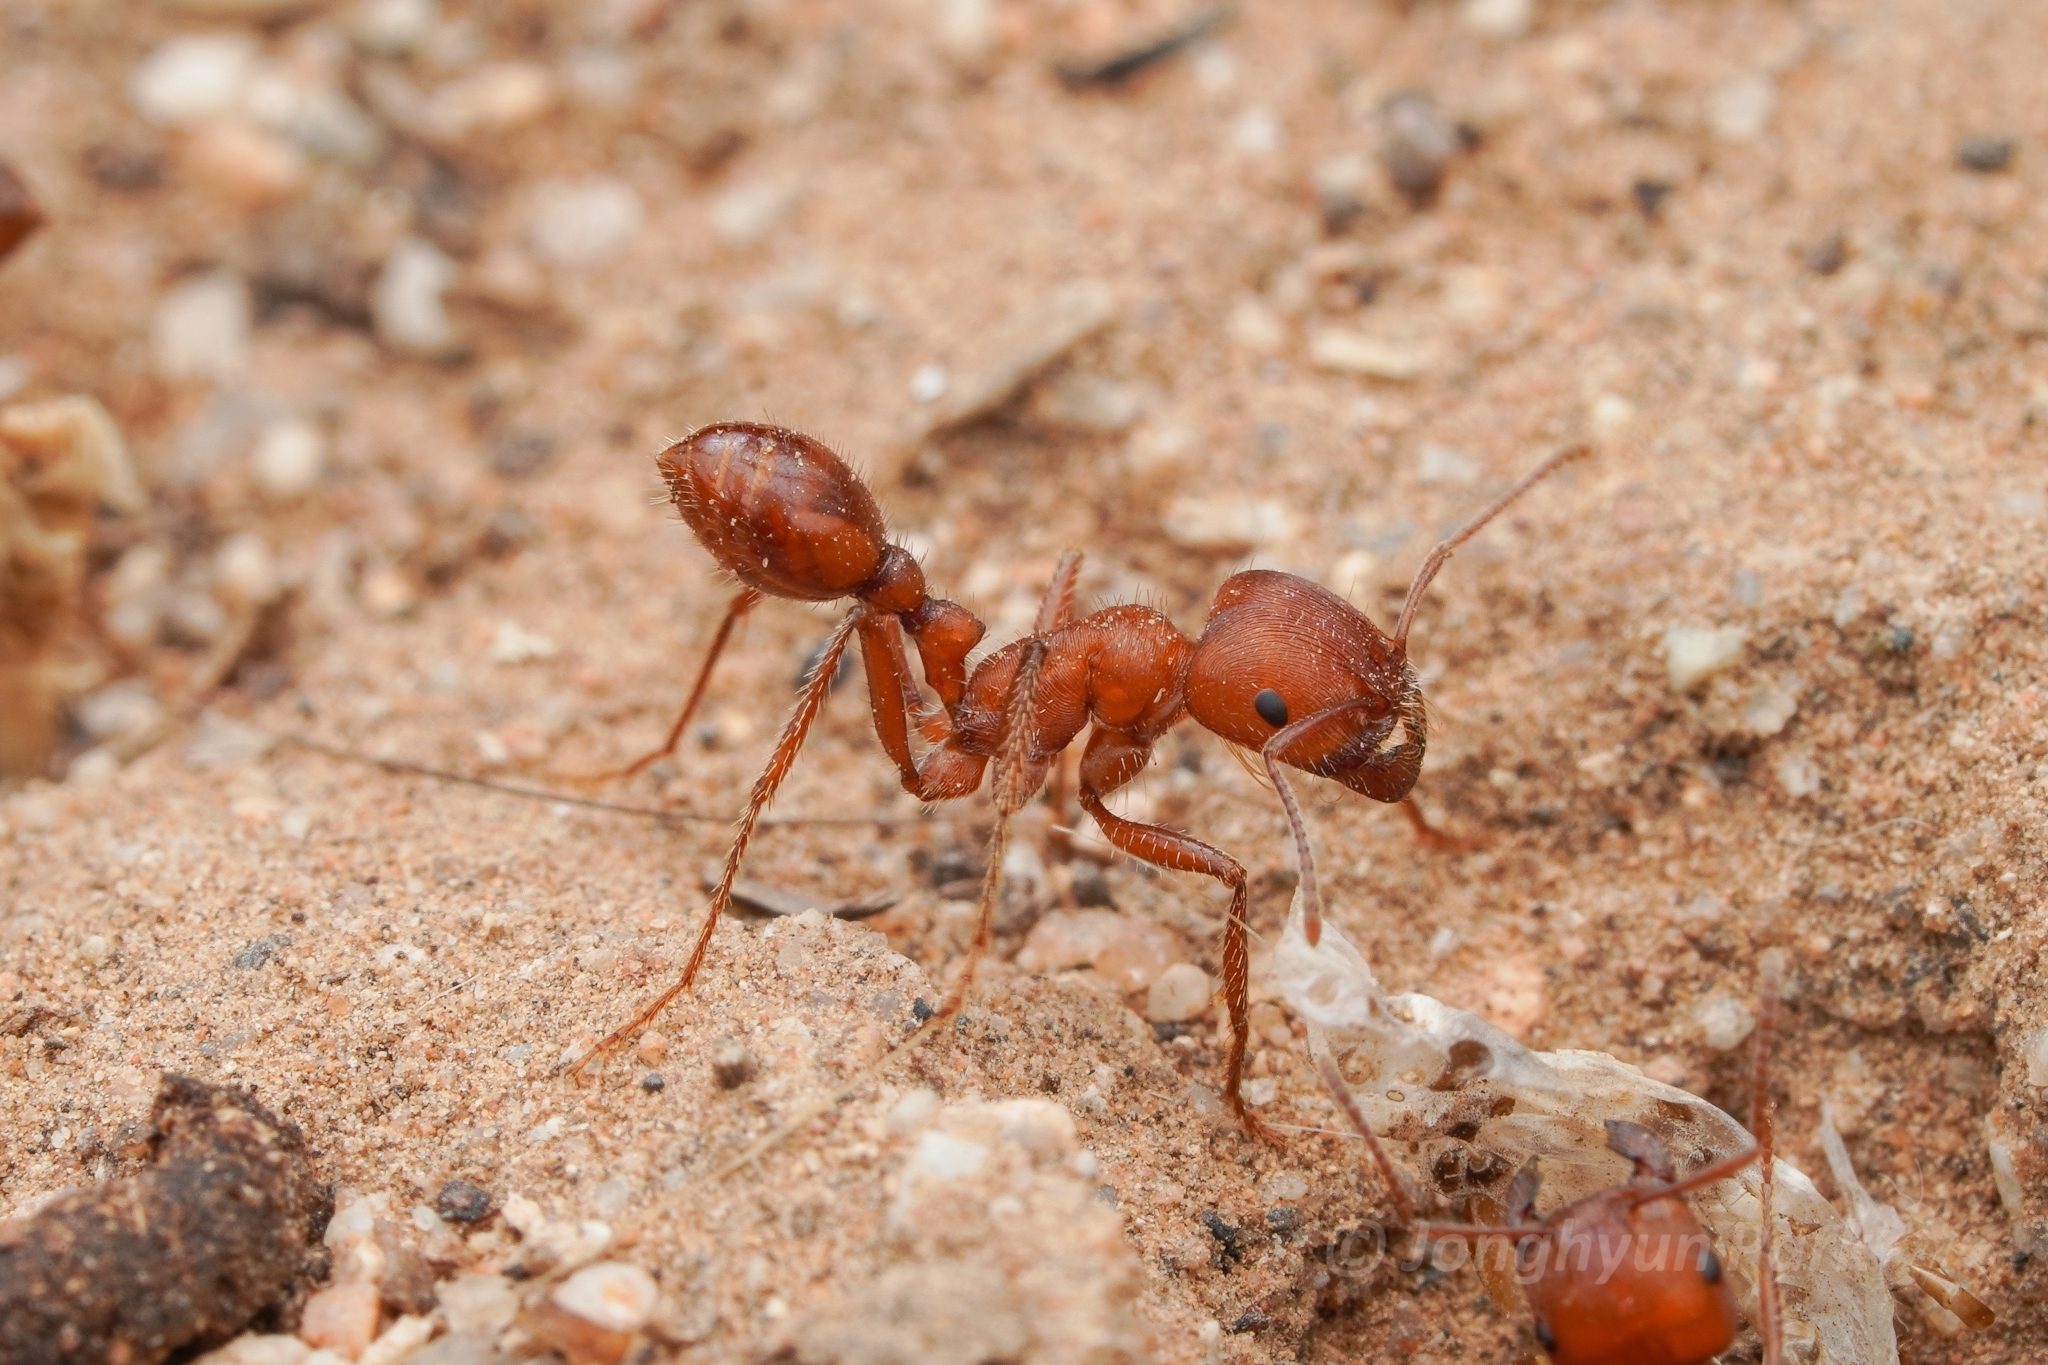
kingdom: Animalia
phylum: Arthropoda
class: Insecta
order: Hymenoptera
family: Formicidae
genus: Pogonomyrmex
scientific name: Pogonomyrmex maricopa
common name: Maricopa harvester ant
